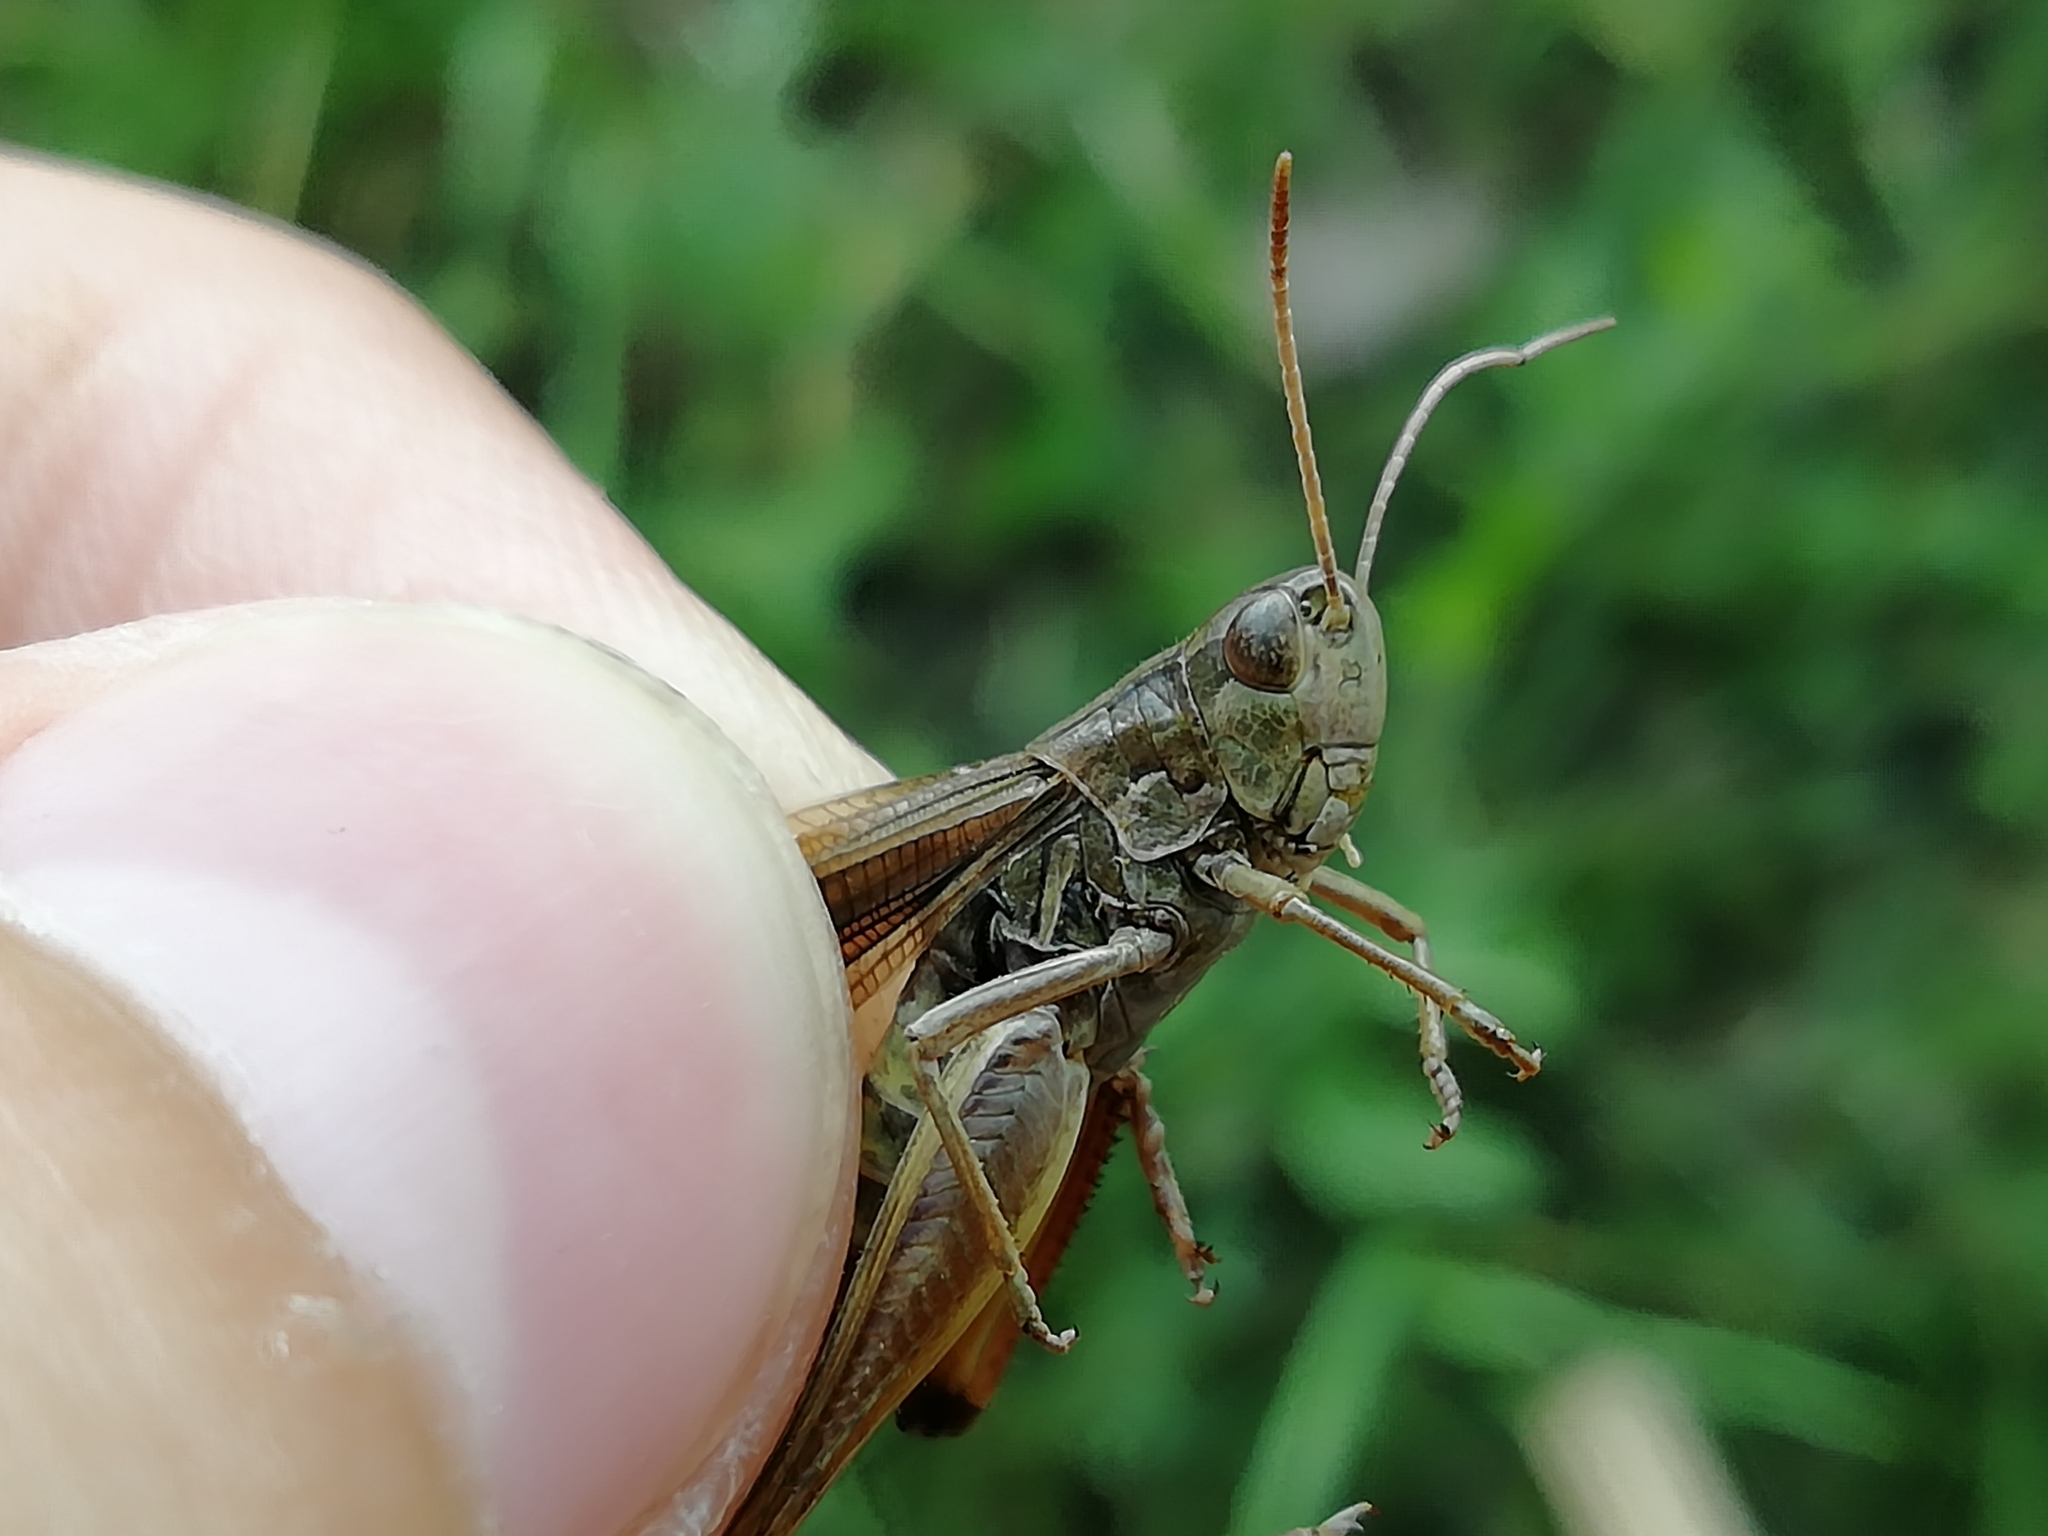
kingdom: Animalia
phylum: Arthropoda
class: Insecta
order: Orthoptera
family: Acrididae
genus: Stenobothrus
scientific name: Stenobothrus lineatus
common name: Stripe-winged grasshopper
